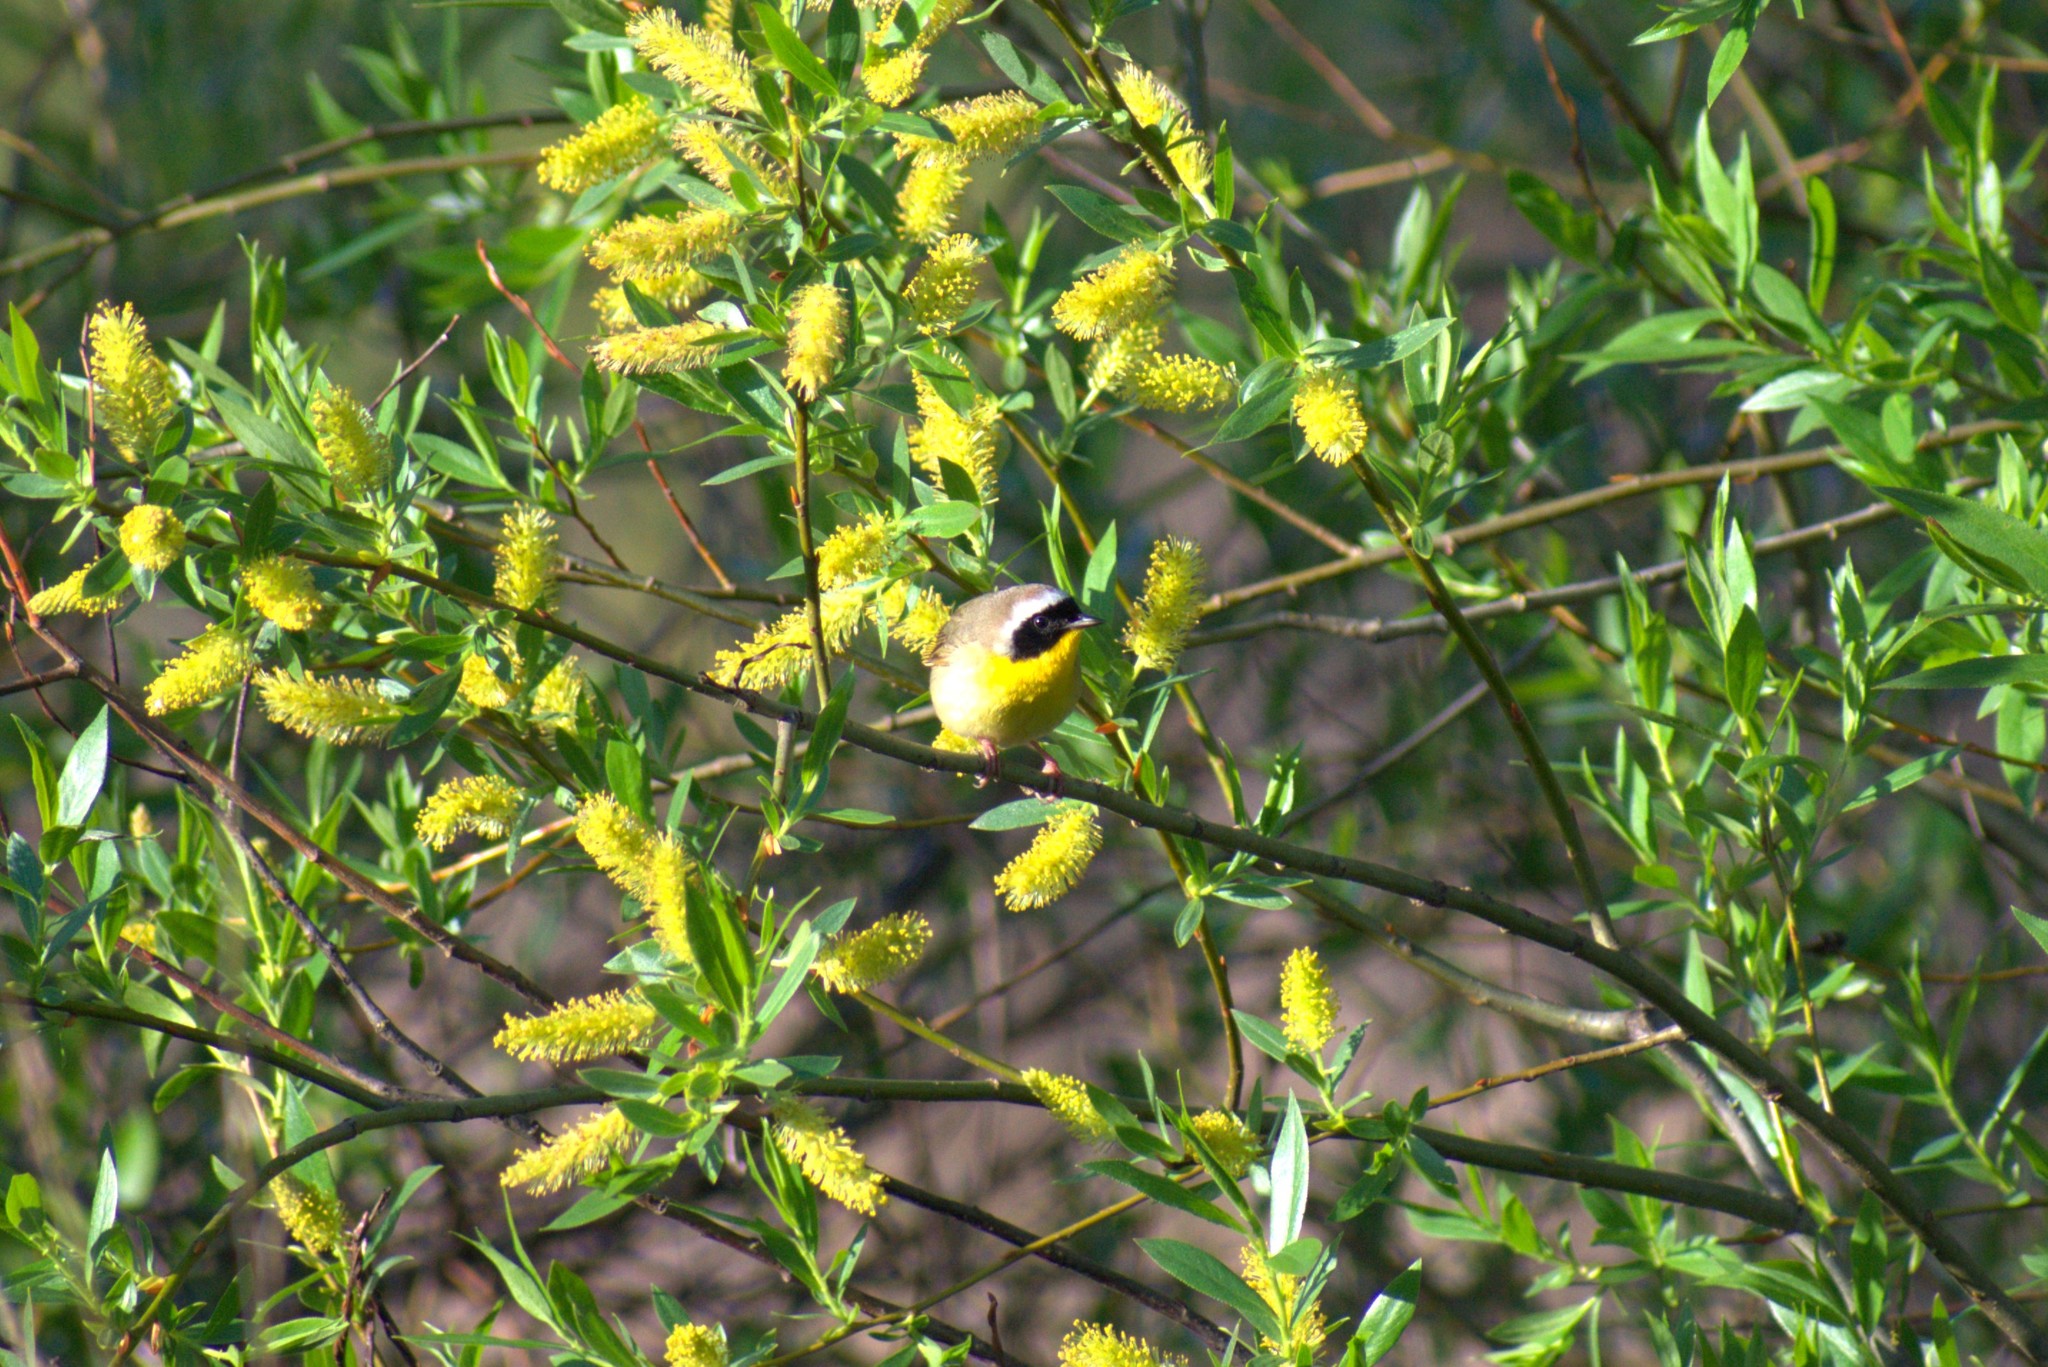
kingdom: Animalia
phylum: Chordata
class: Aves
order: Passeriformes
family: Parulidae
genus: Geothlypis
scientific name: Geothlypis trichas
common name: Common yellowthroat
